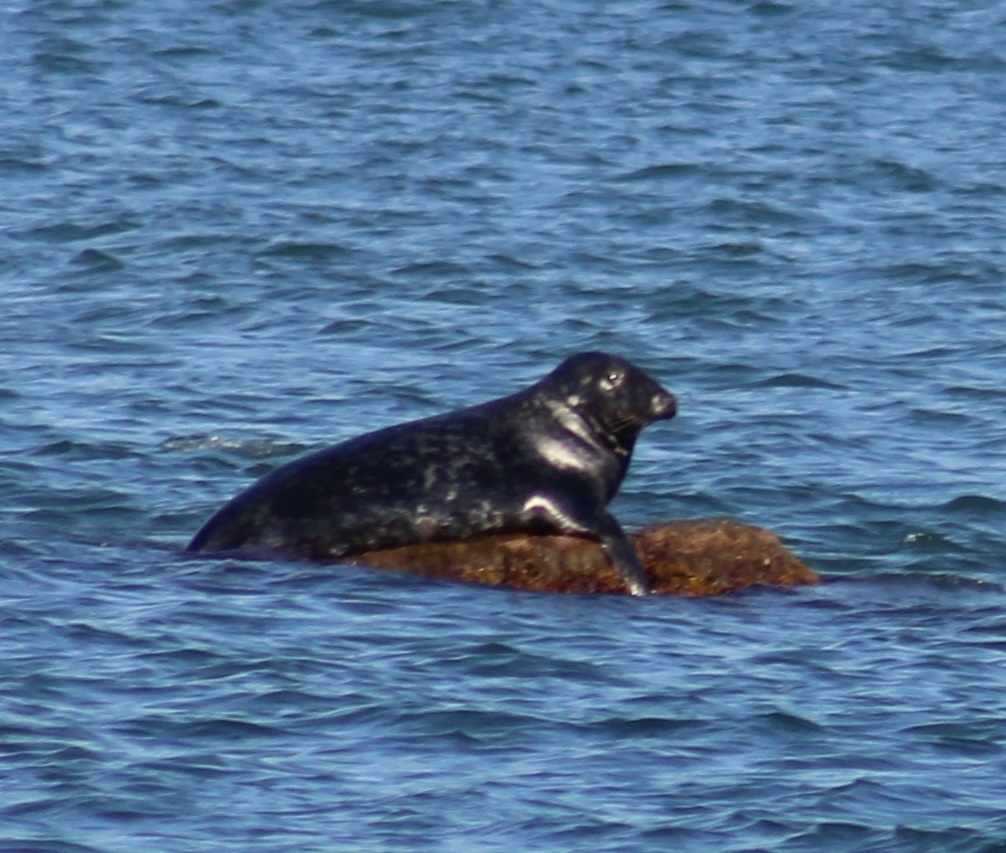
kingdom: Animalia
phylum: Chordata
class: Mammalia
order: Carnivora
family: Phocidae
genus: Halichoerus
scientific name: Halichoerus grypus
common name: Grey seal
